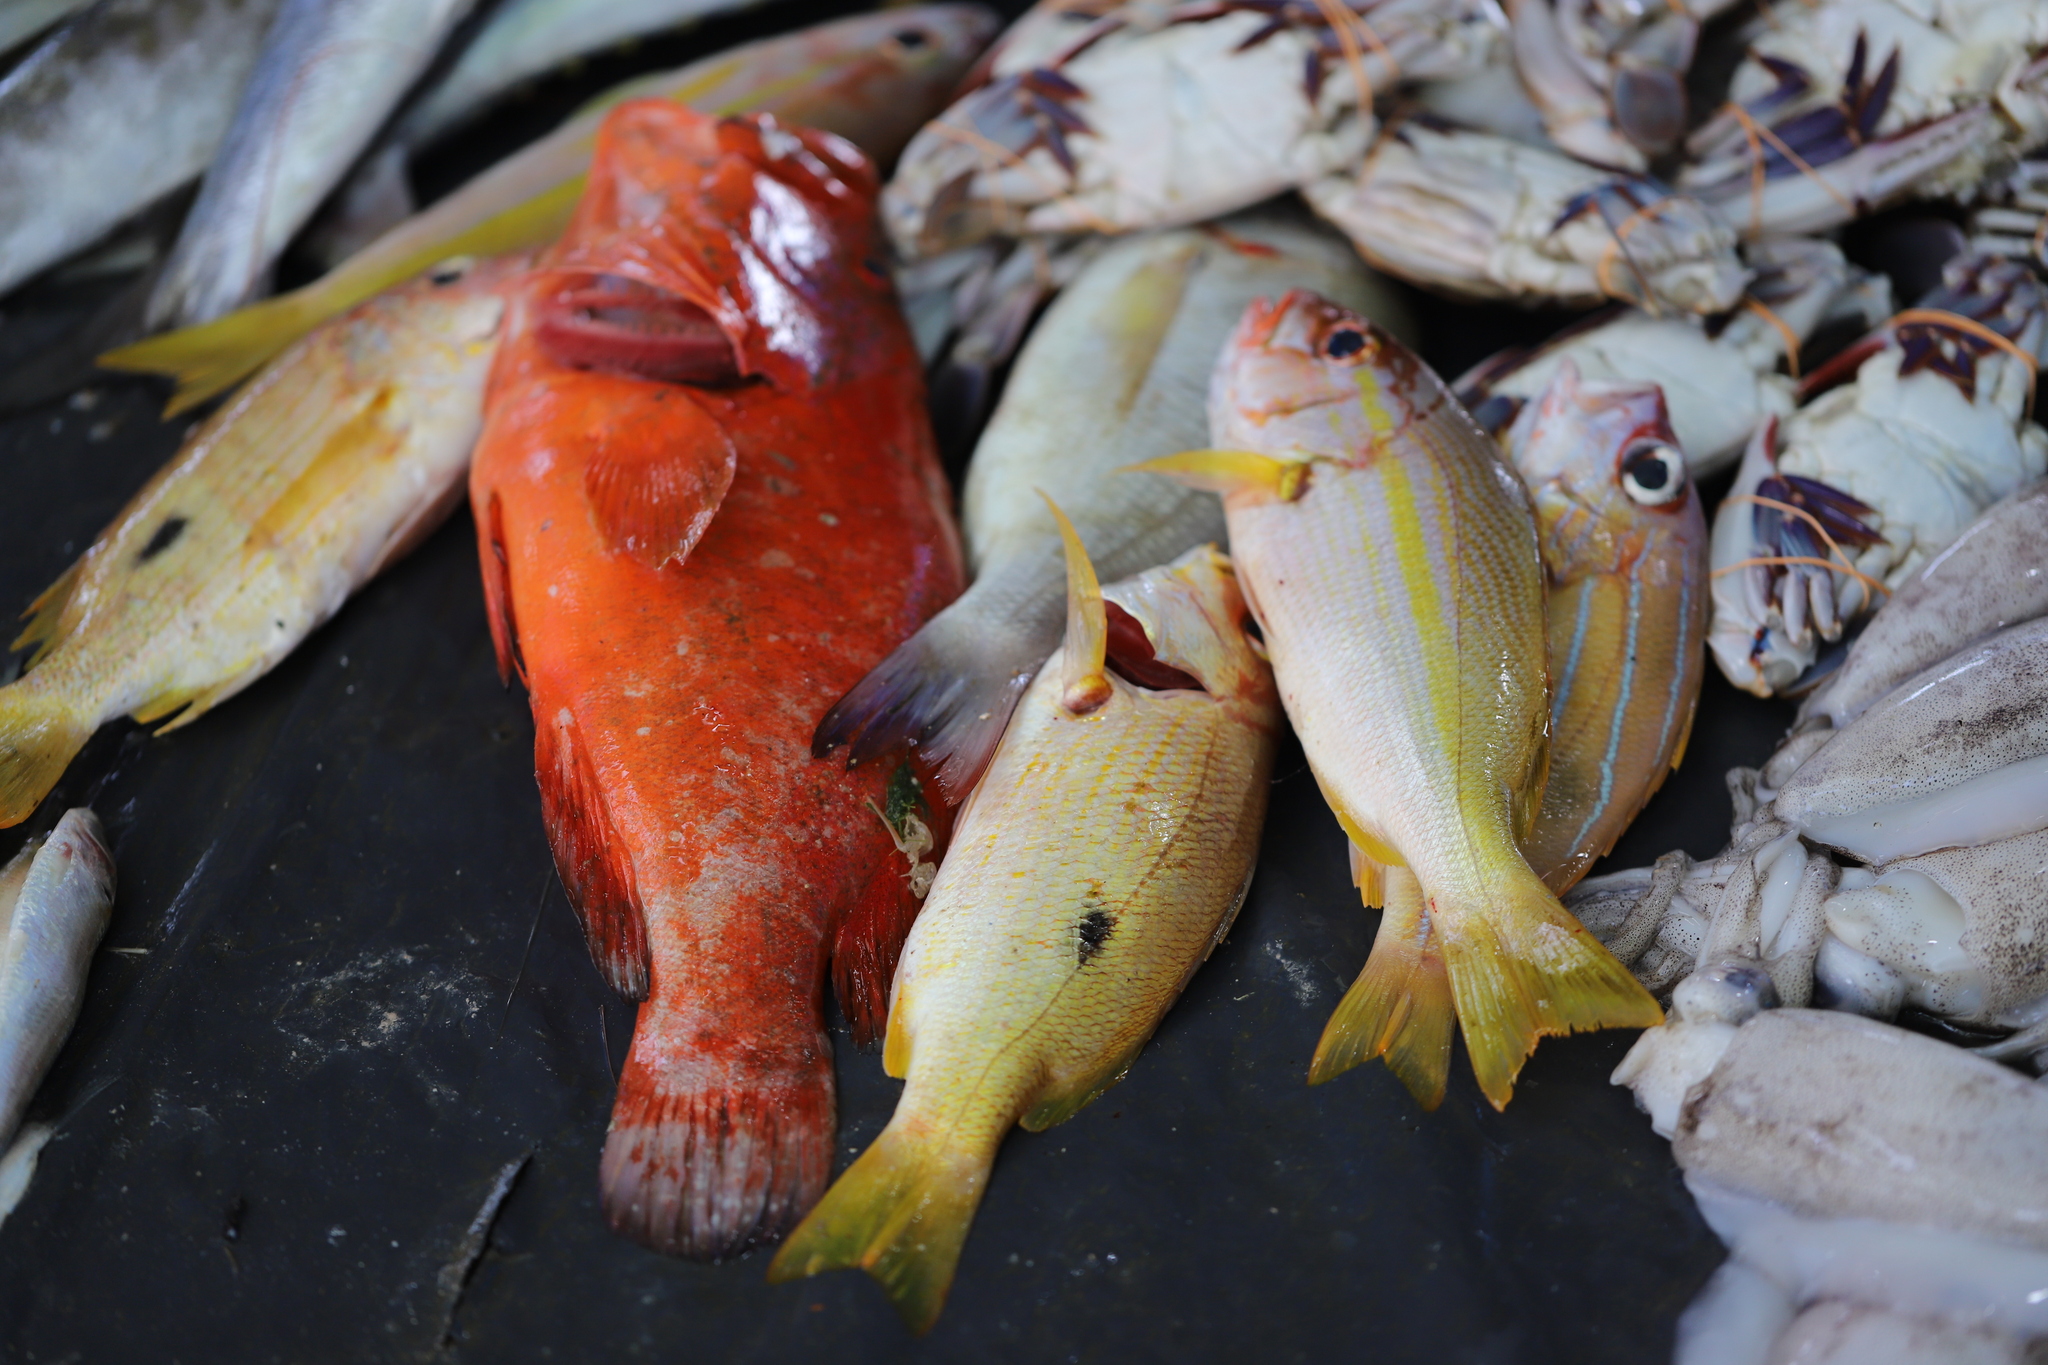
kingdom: Animalia
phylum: Chordata
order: Perciformes
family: Serranidae
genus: Cephalopholis
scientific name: Cephalopholis sonnerati
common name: Tomato hind
